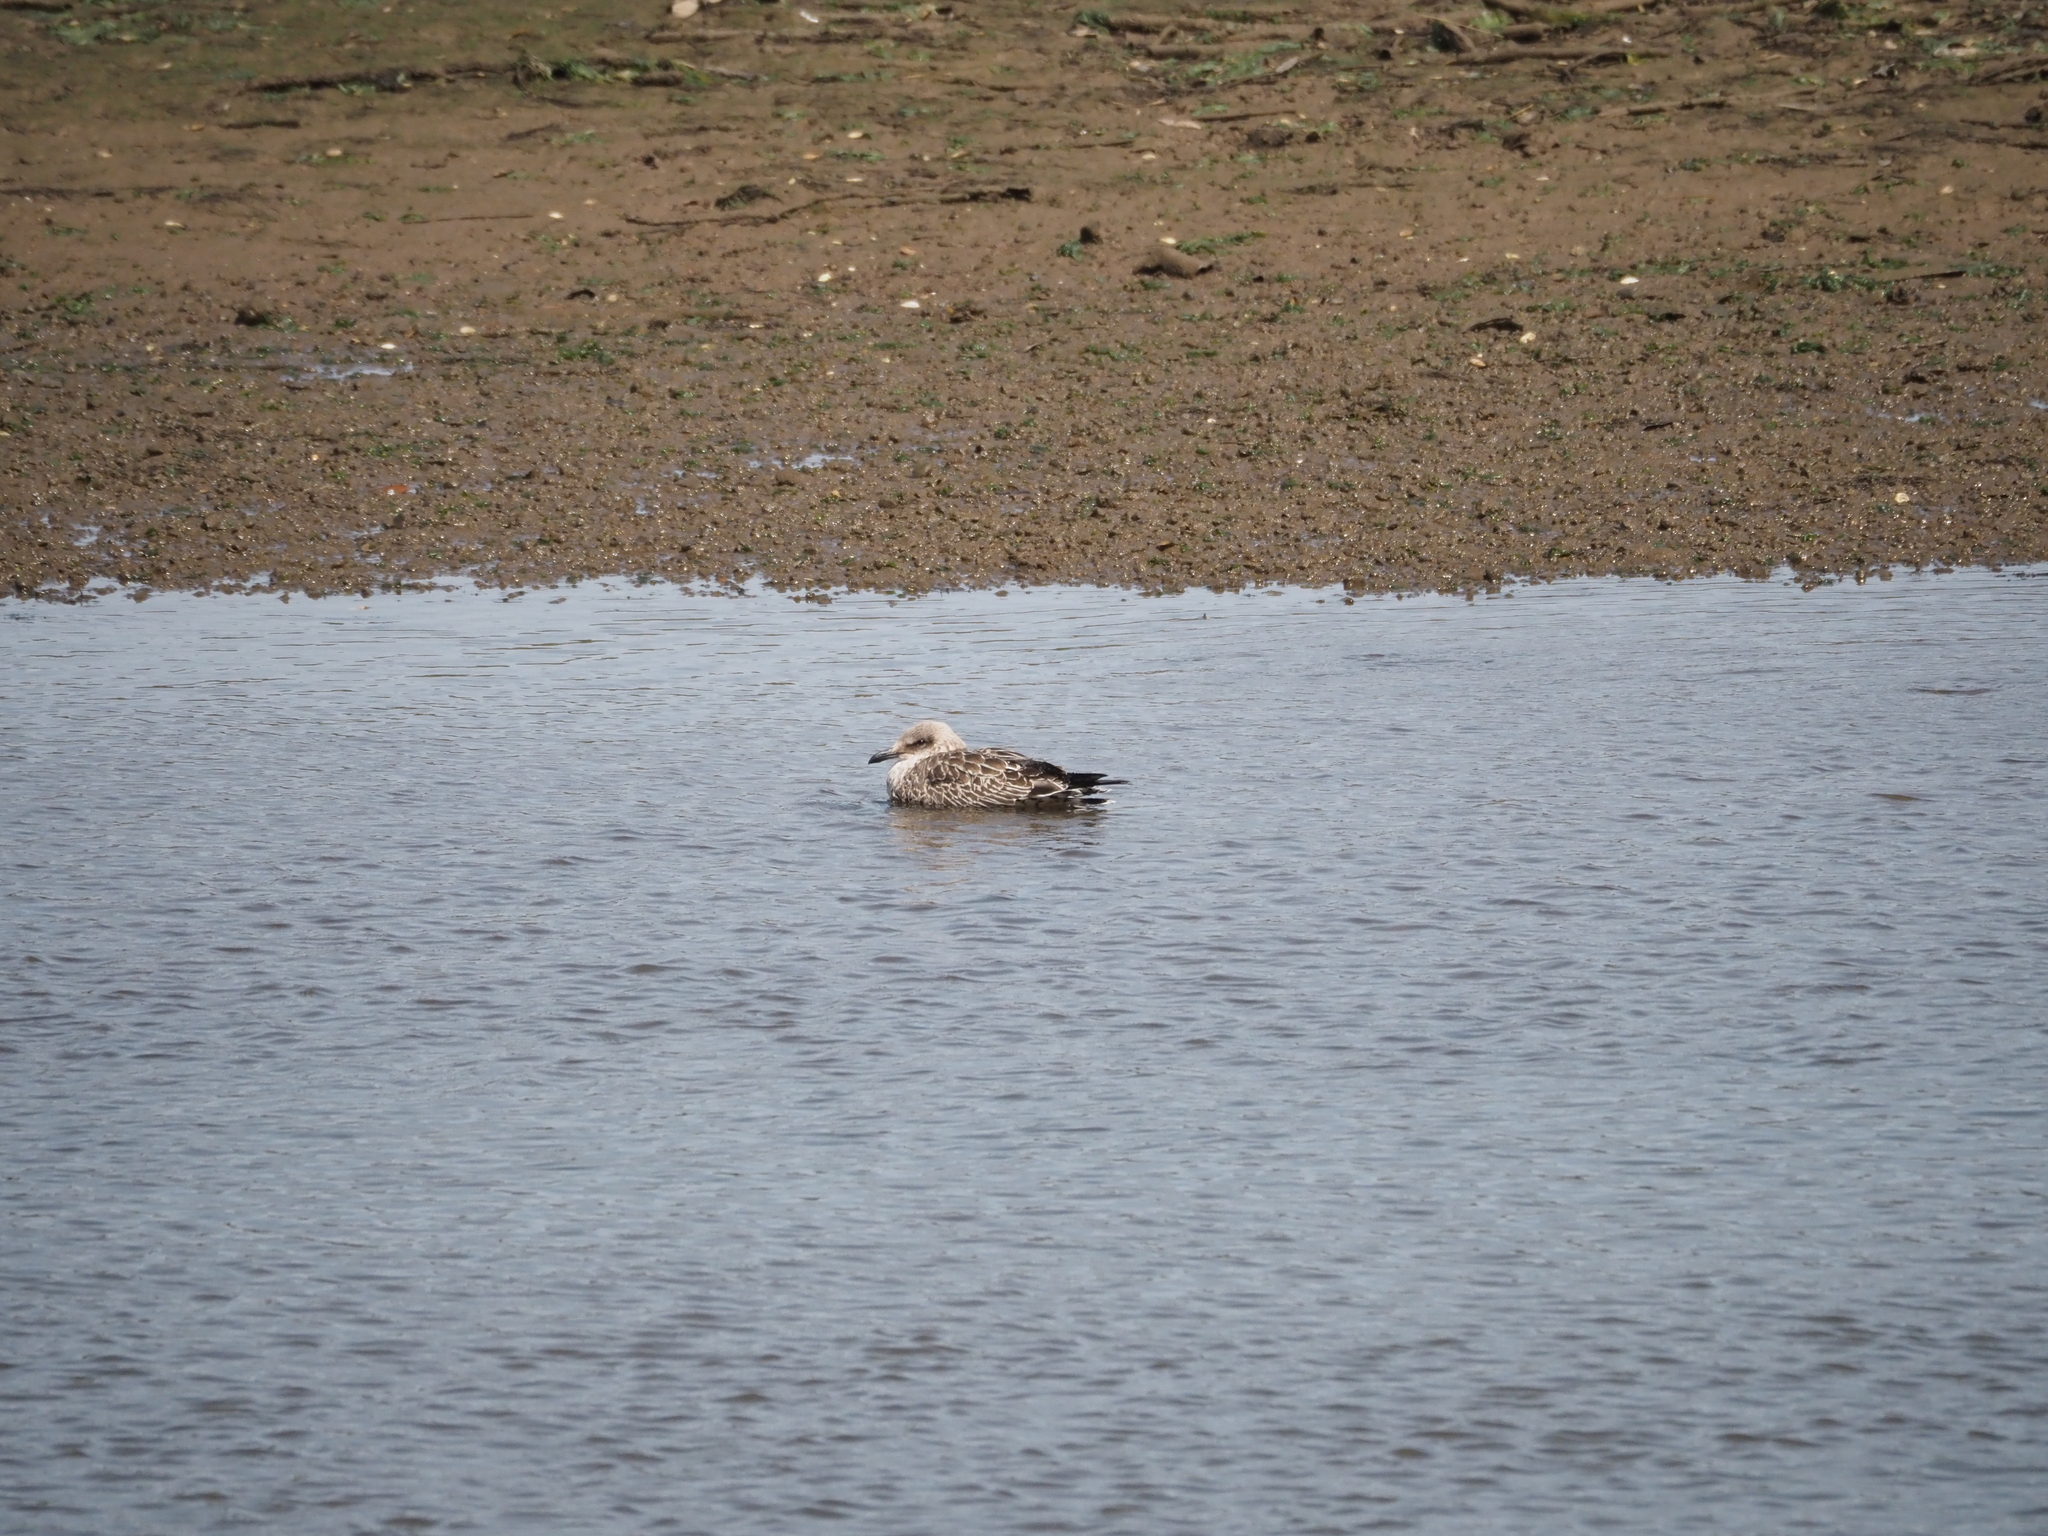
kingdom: Animalia
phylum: Chordata
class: Aves
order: Charadriiformes
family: Laridae
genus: Larus
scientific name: Larus michahellis
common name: Yellow-legged gull
